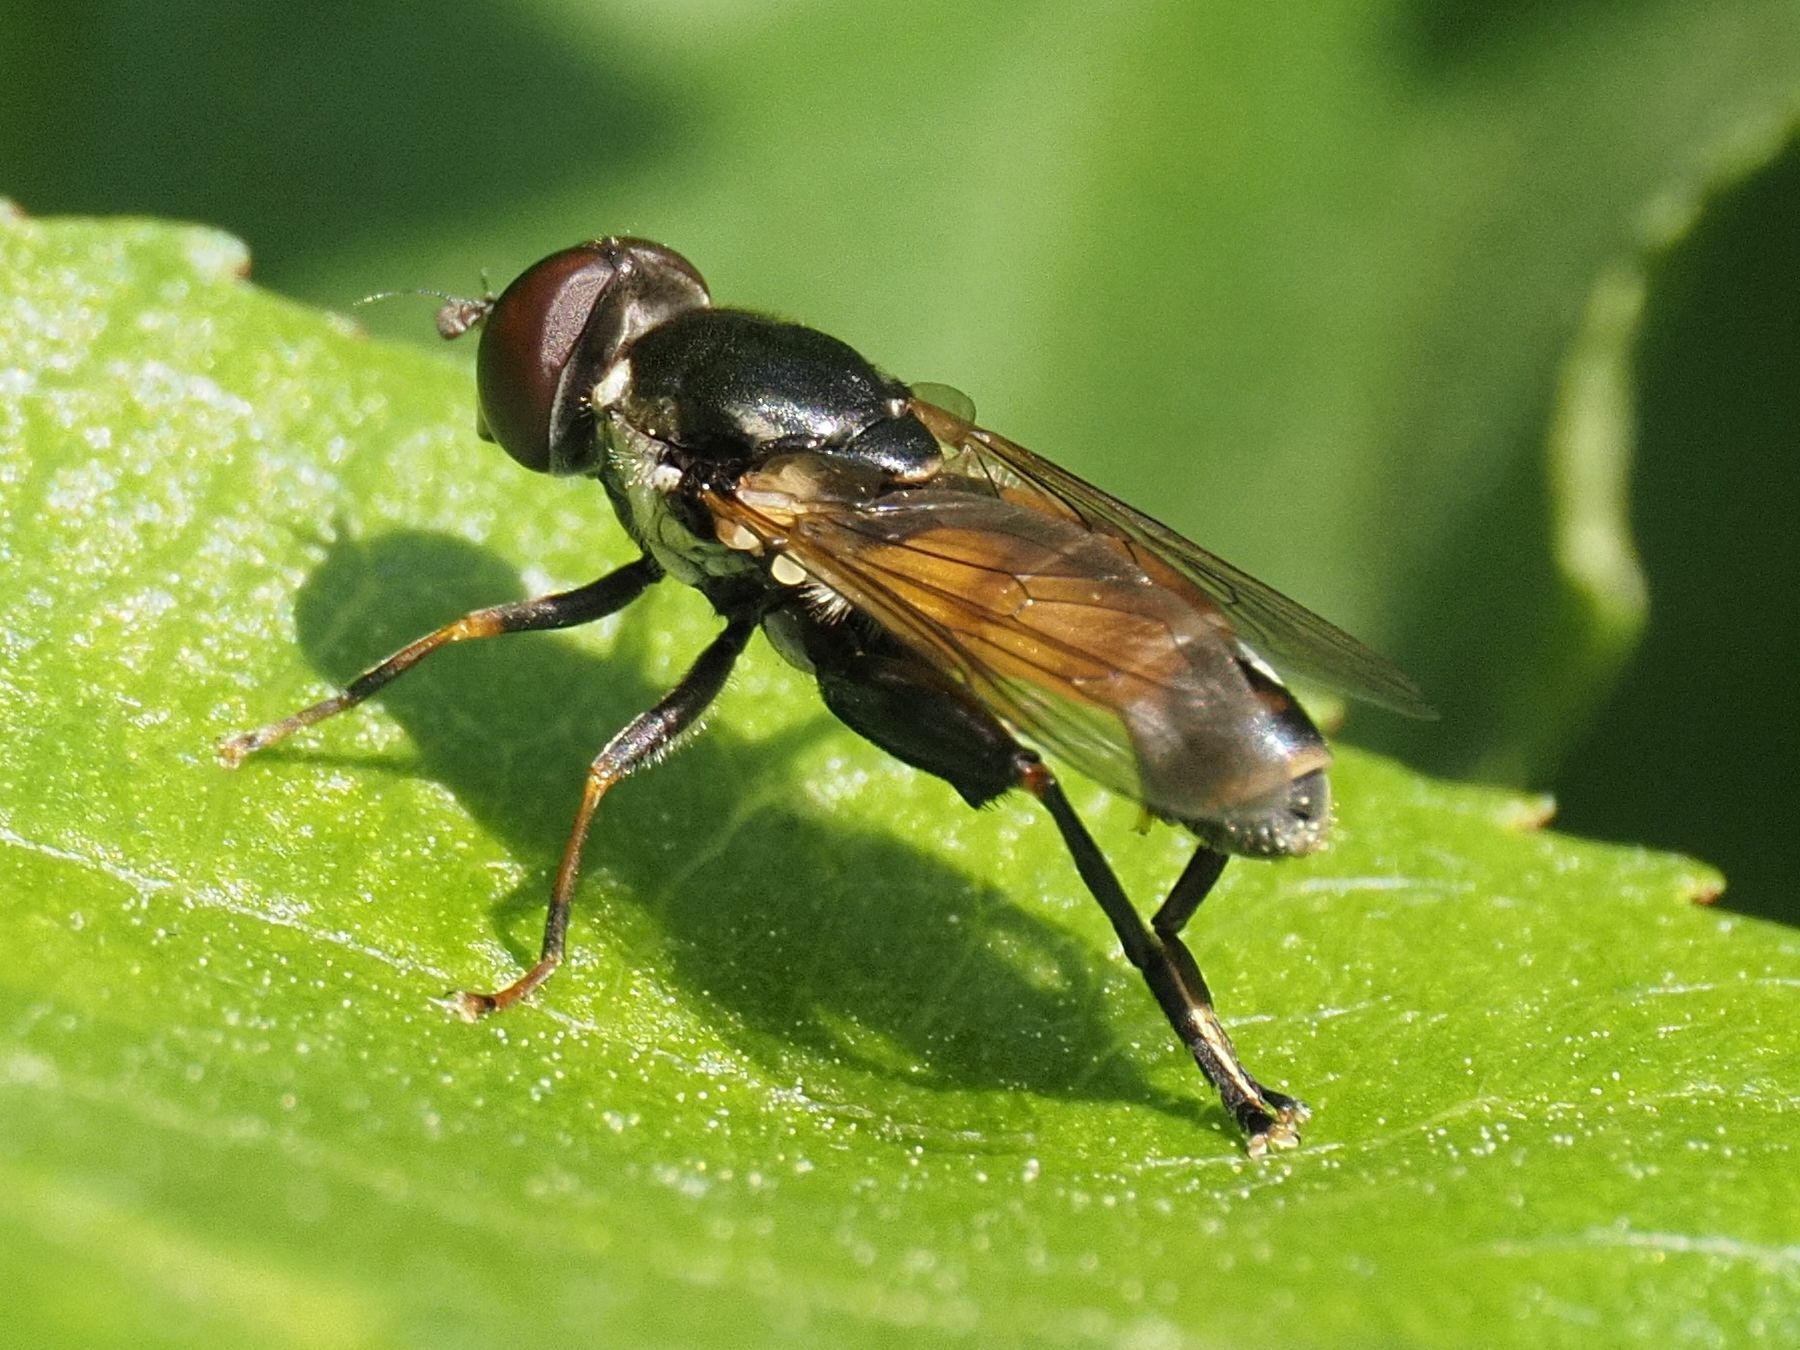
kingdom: Animalia
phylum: Arthropoda
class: Insecta
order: Diptera
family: Syrphidae
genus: Tropidia
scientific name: Tropidia scita
